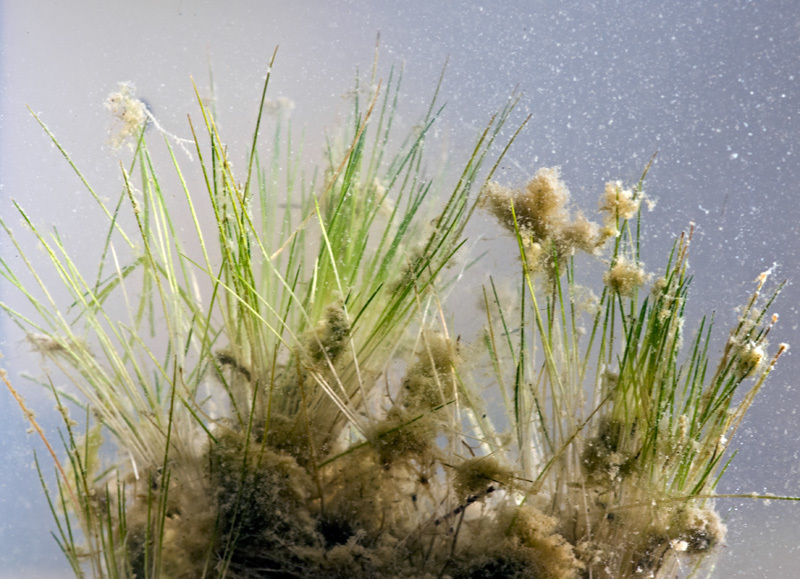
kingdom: Plantae
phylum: Tracheophyta
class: Magnoliopsida
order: Nymphaeales
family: Hydatellaceae
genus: Trithuria
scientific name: Trithuria inconspicua
